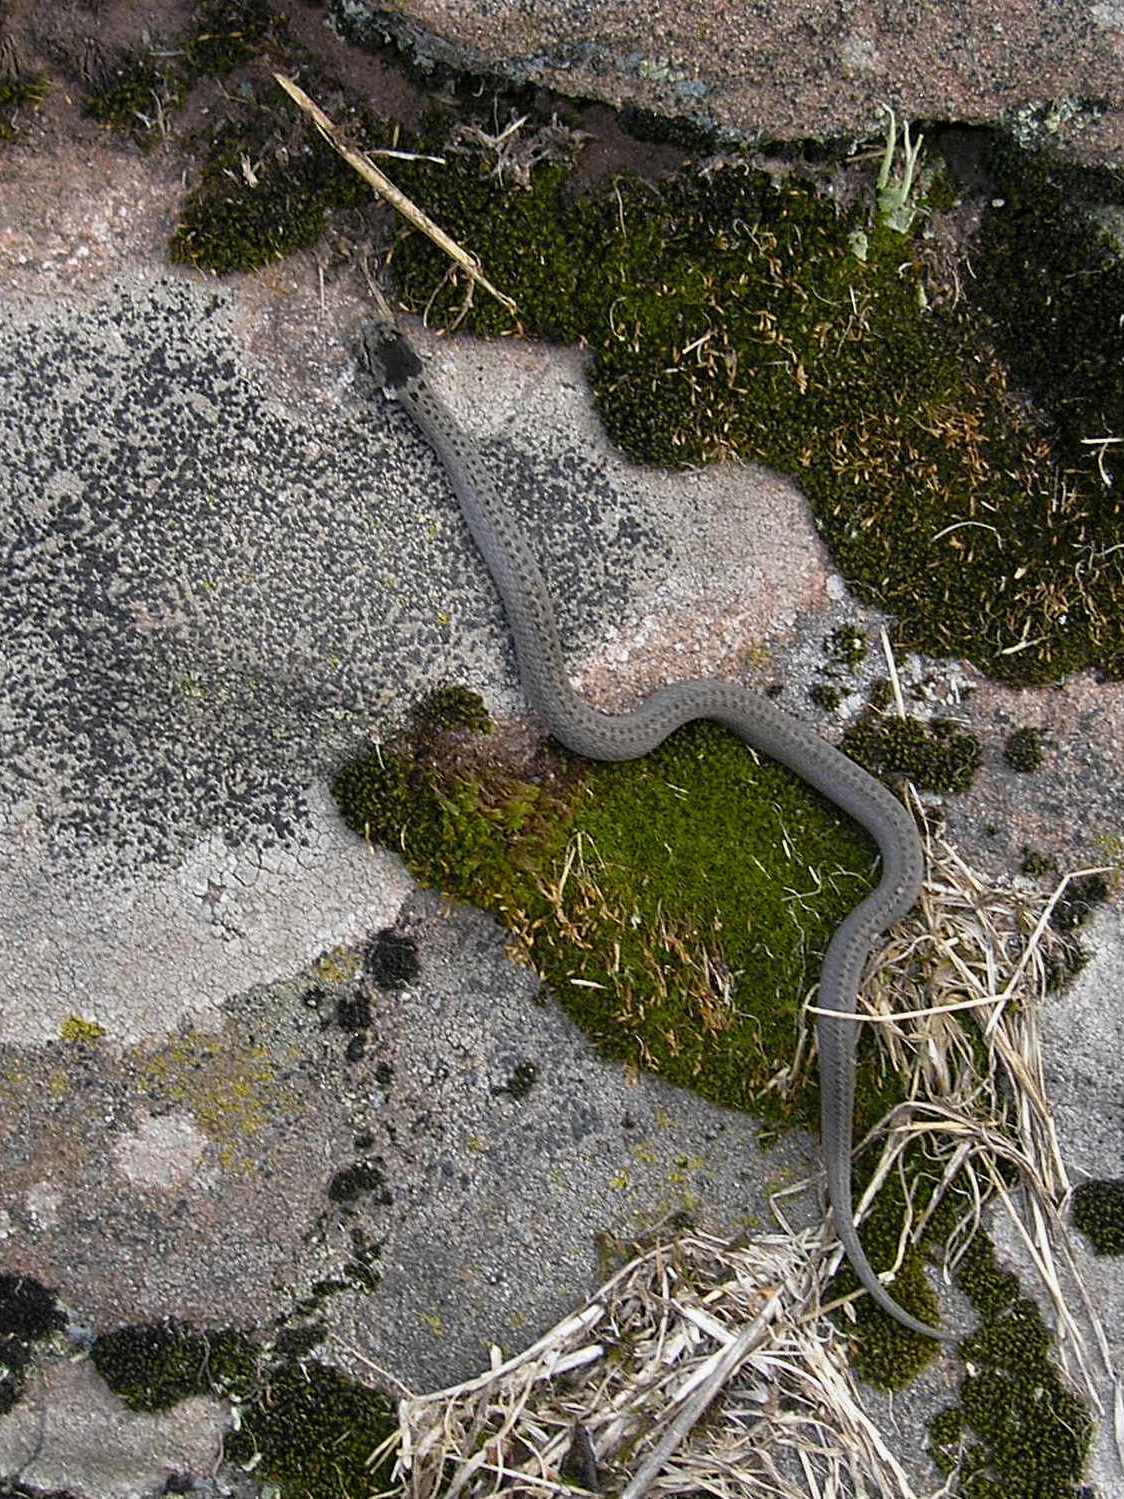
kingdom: Animalia
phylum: Chordata
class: Squamata
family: Colubridae
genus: Coronella
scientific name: Coronella austriaca
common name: Smooth snake
